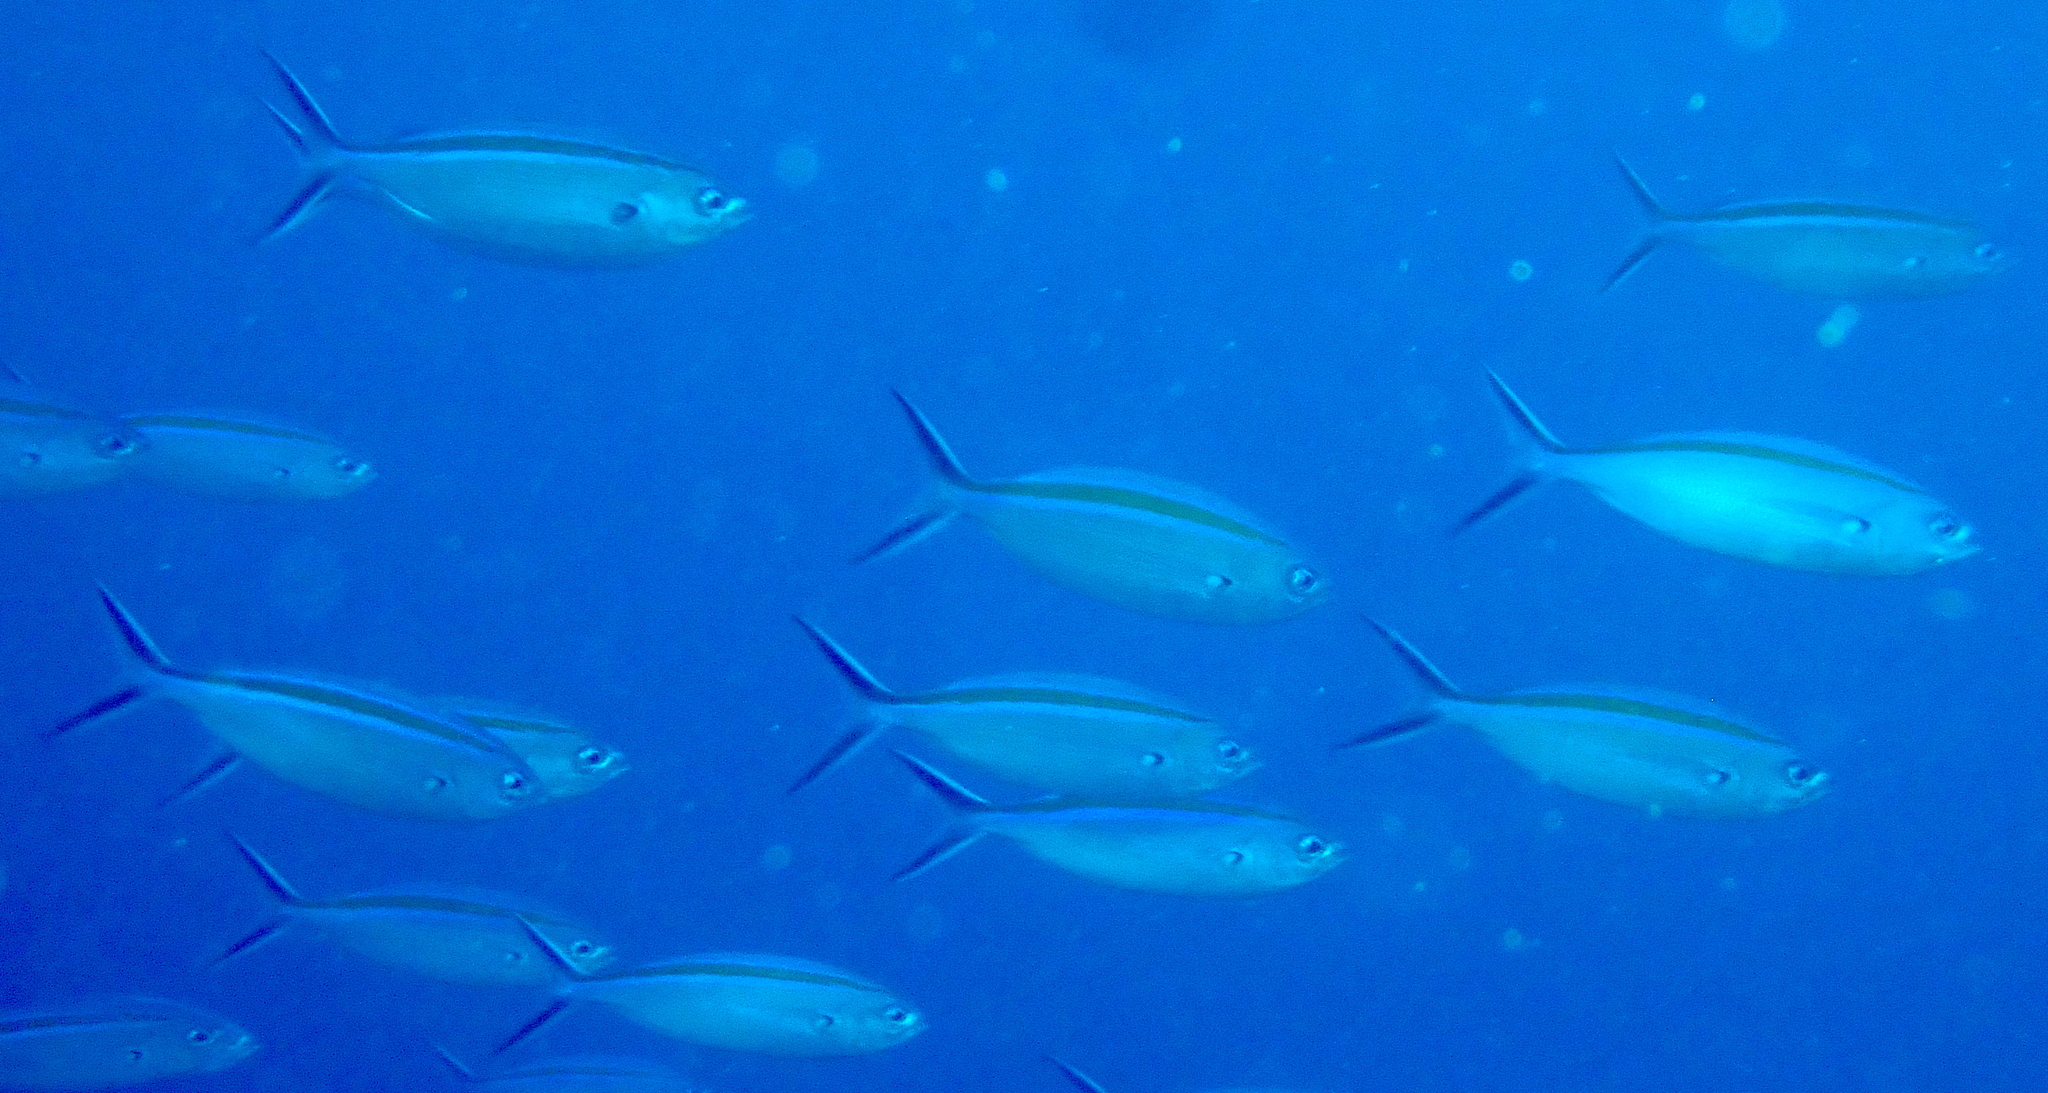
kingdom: Animalia
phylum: Chordata
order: Perciformes
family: Caesionidae
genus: Caesio
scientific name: Caesio caerulaurea
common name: Blue and gold fusilier
